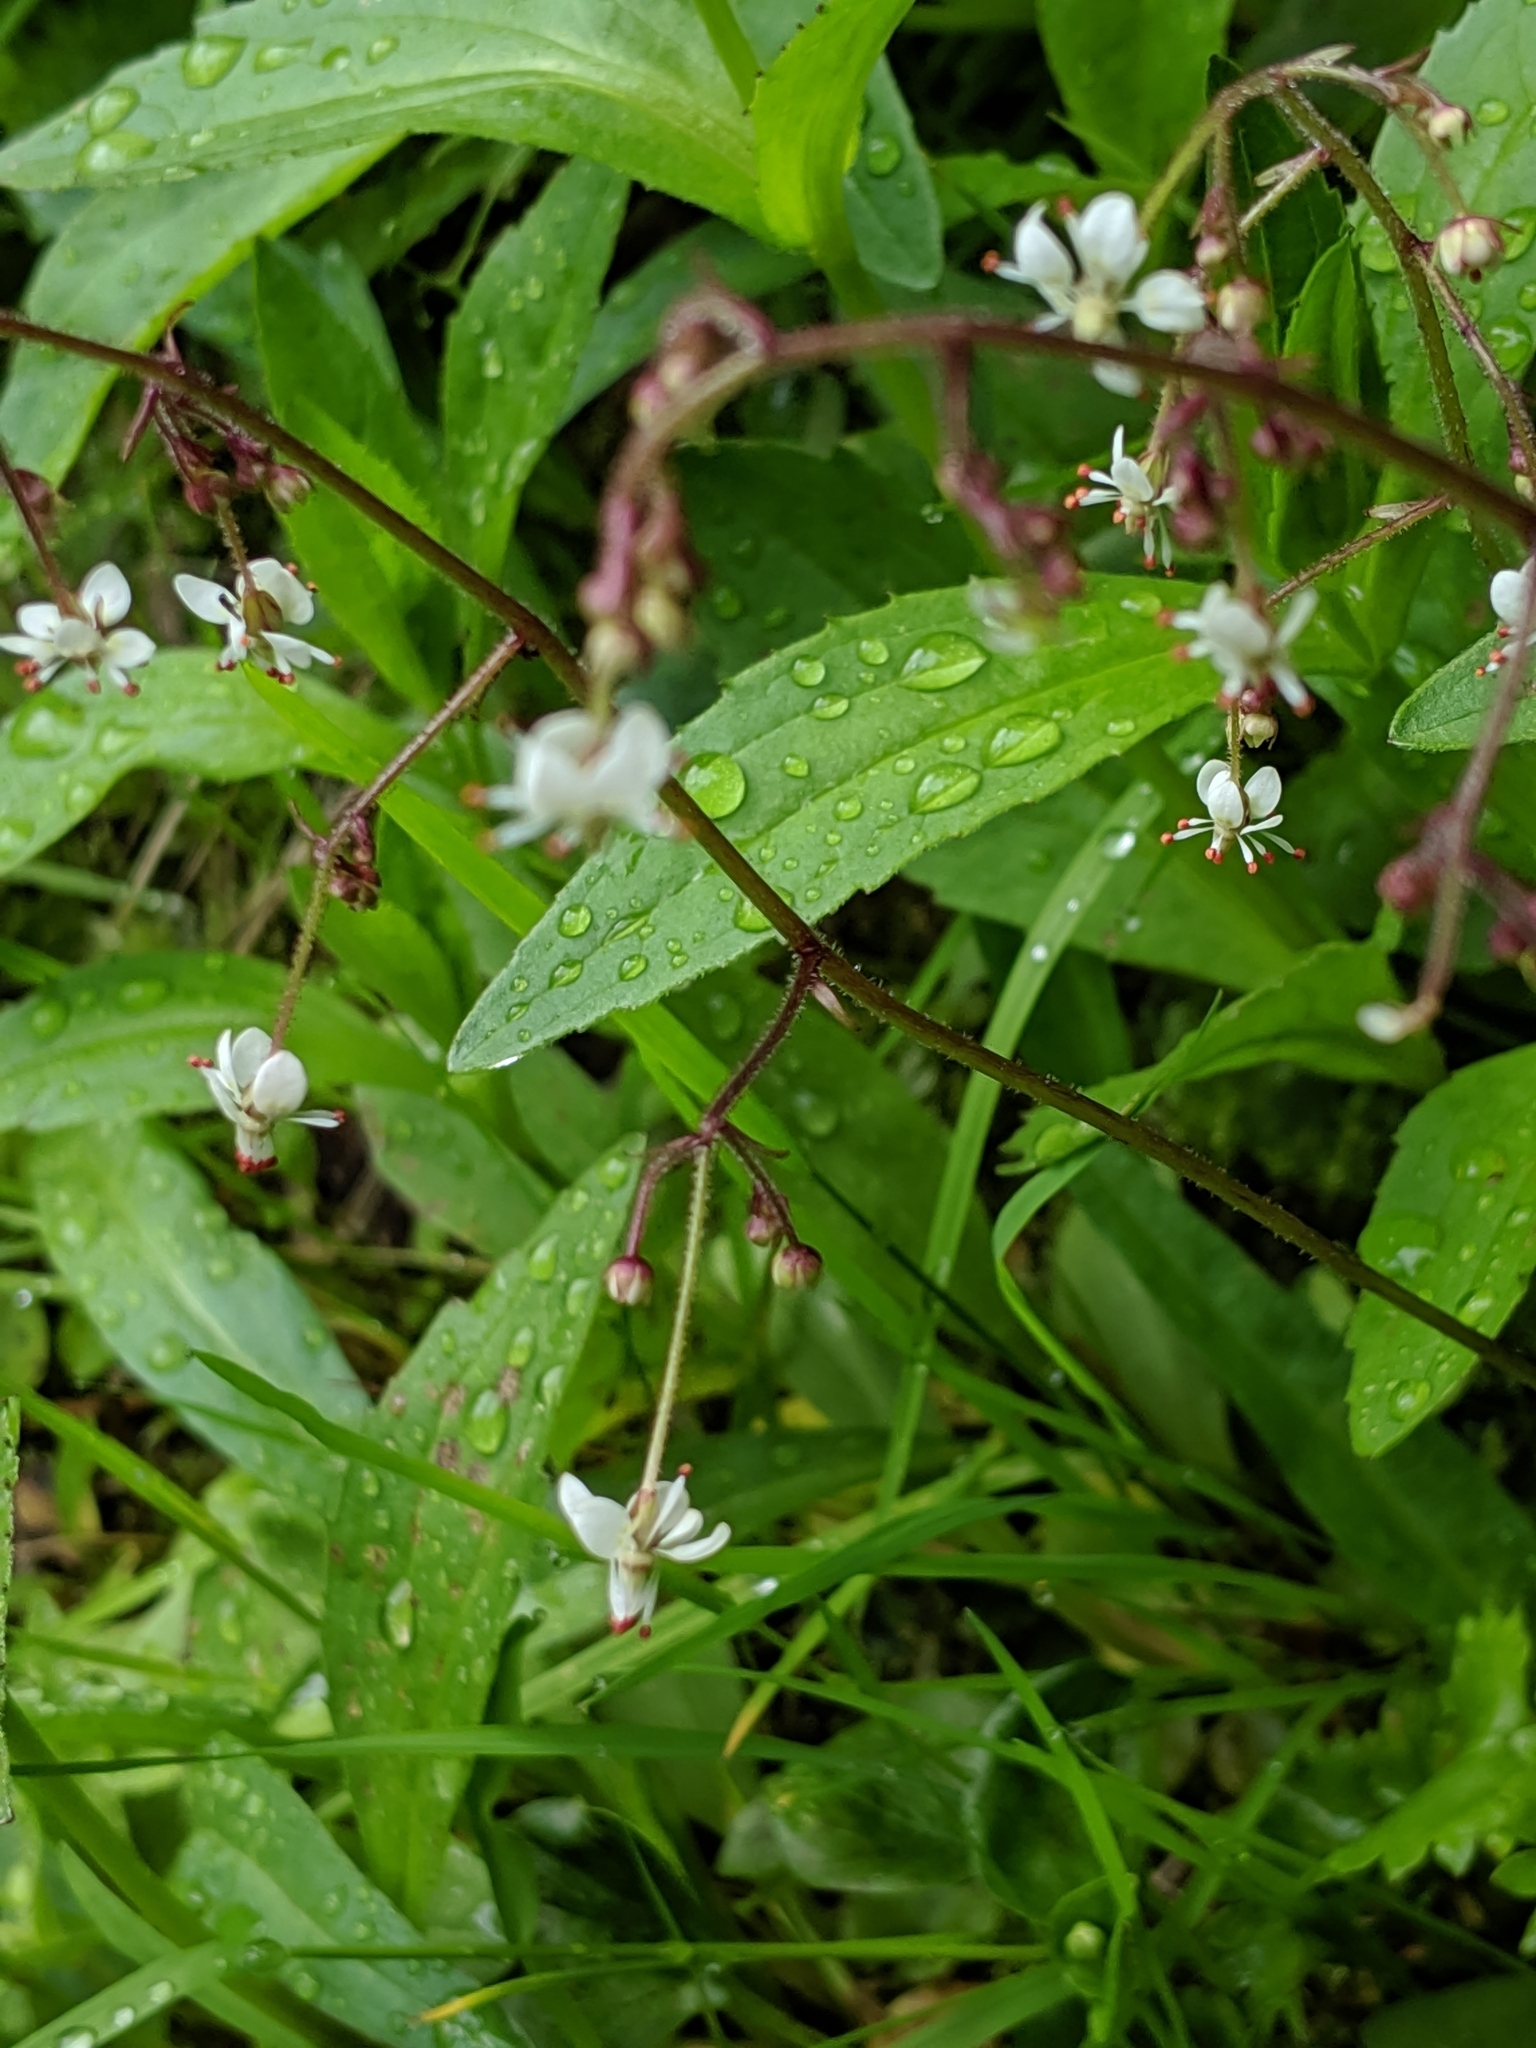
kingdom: Plantae
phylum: Tracheophyta
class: Magnoliopsida
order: Saxifragales
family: Saxifragaceae
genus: Micranthes
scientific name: Micranthes odontoloma
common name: Brook saxifrage
